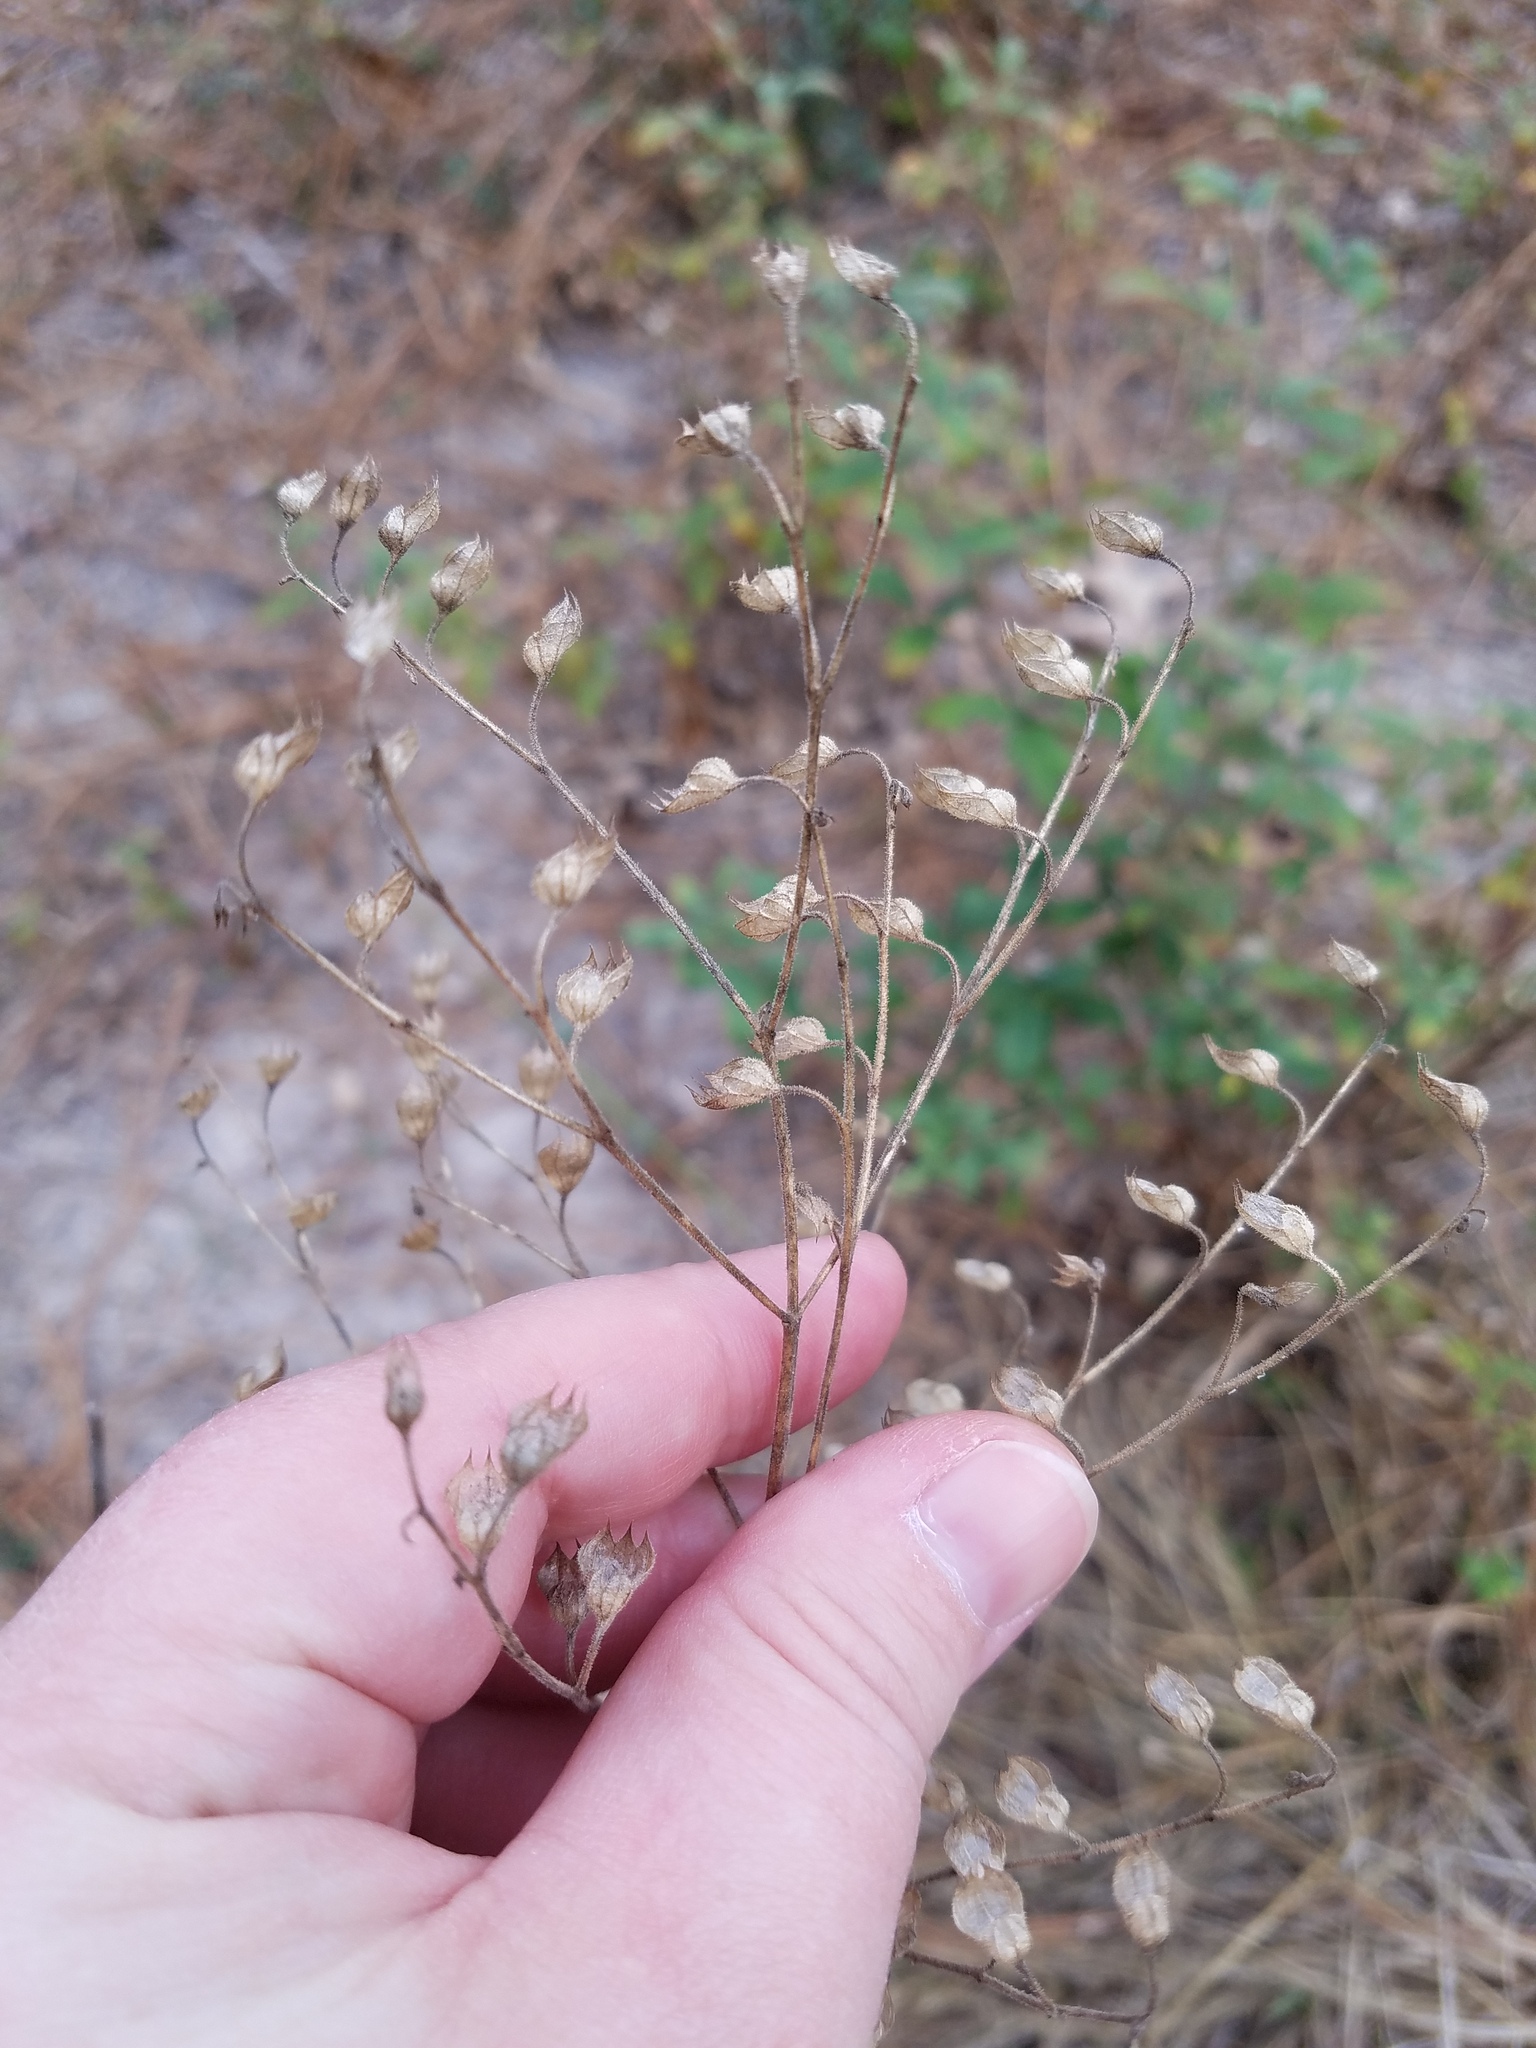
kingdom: Plantae
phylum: Tracheophyta
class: Magnoliopsida
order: Lamiales
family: Lamiaceae
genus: Trichostema
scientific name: Trichostema fruticosum
